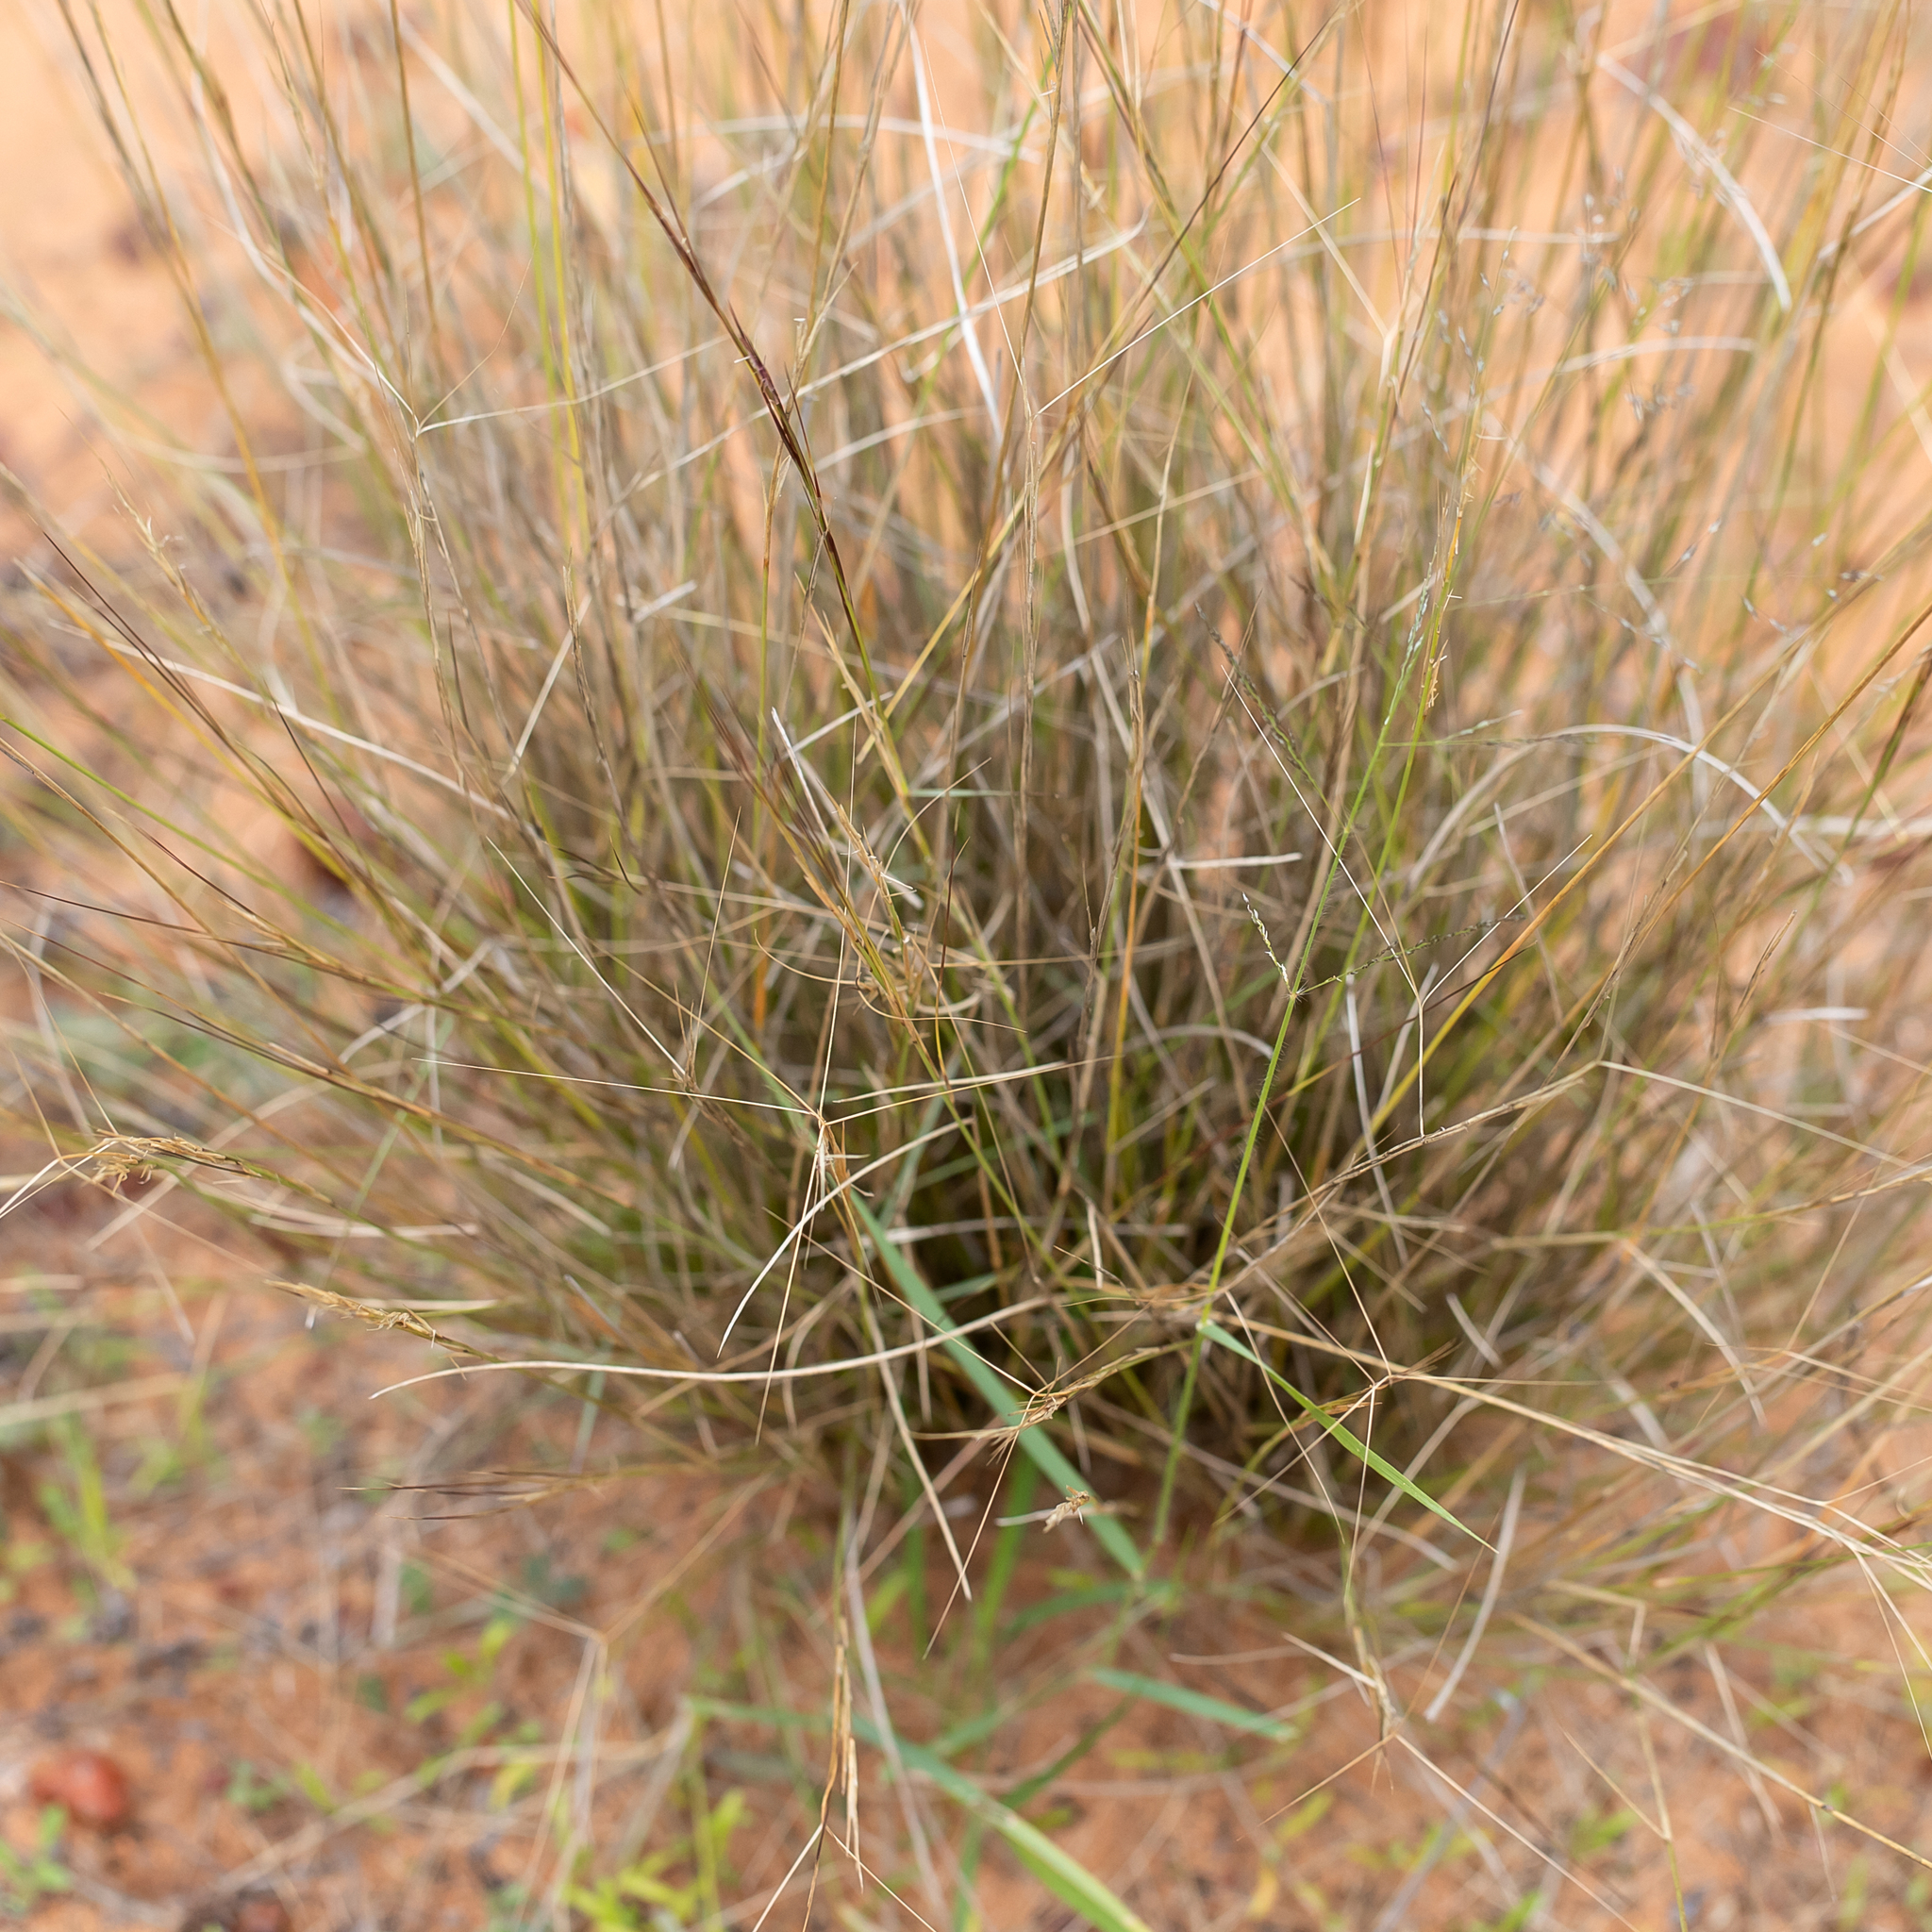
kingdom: Plantae
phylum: Tracheophyta
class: Liliopsida
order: Poales
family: Poaceae
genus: Aristida
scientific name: Aristida holathera
